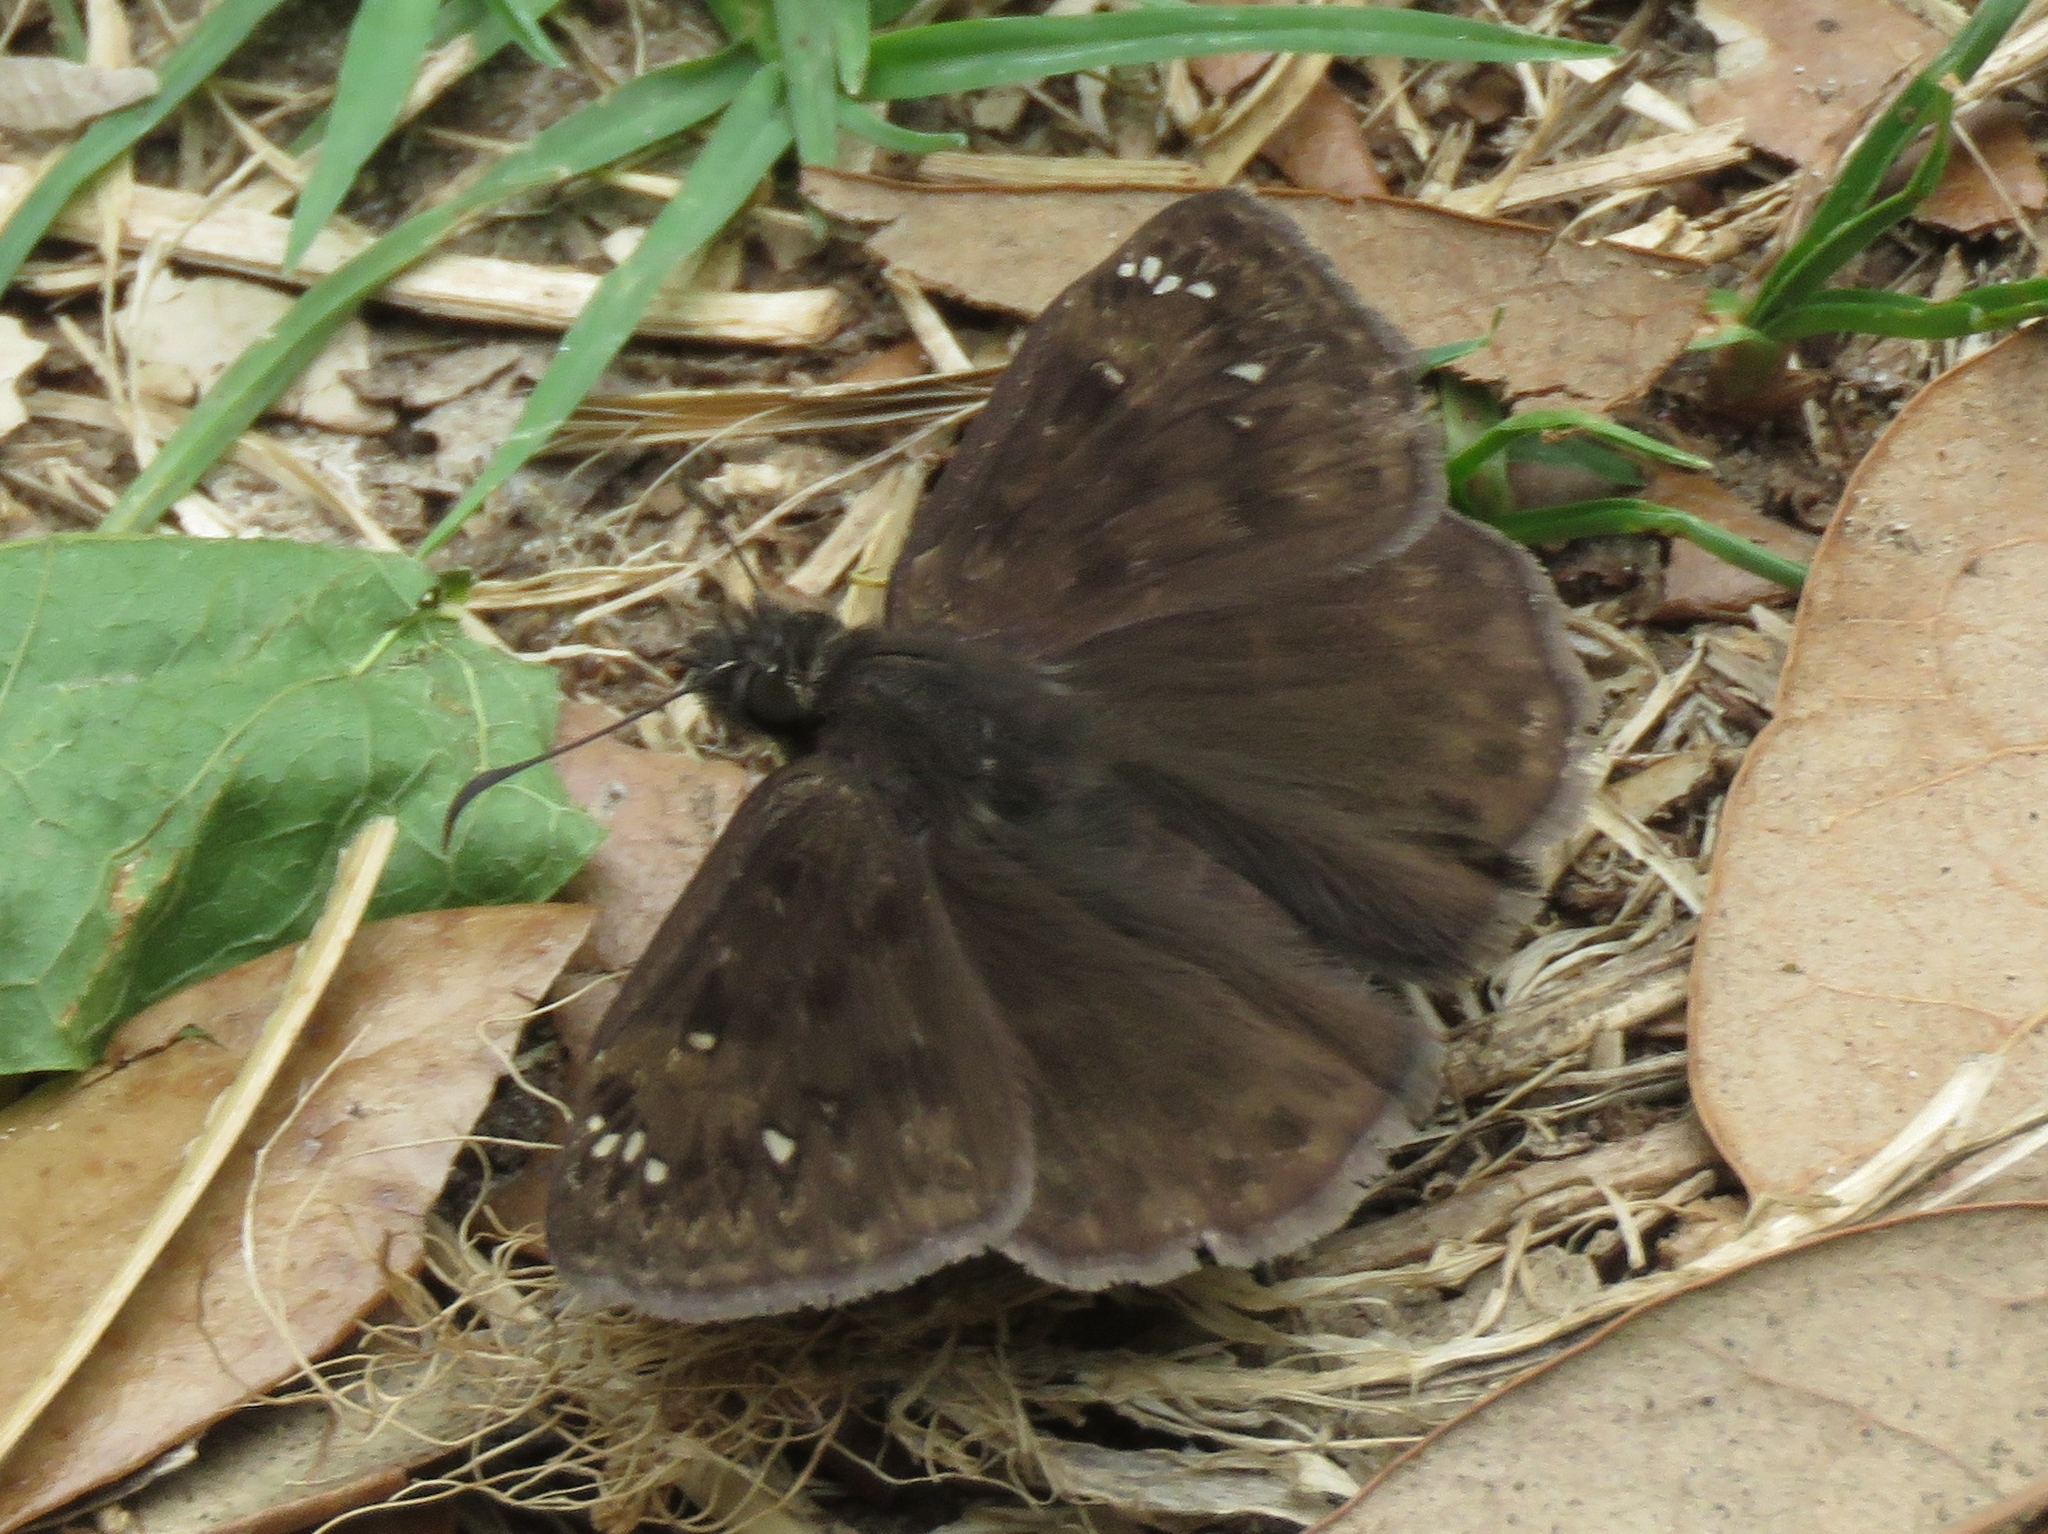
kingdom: Animalia
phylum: Arthropoda
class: Insecta
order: Lepidoptera
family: Hesperiidae
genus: Erynnis
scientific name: Erynnis horatius
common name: Horace's duskywing
